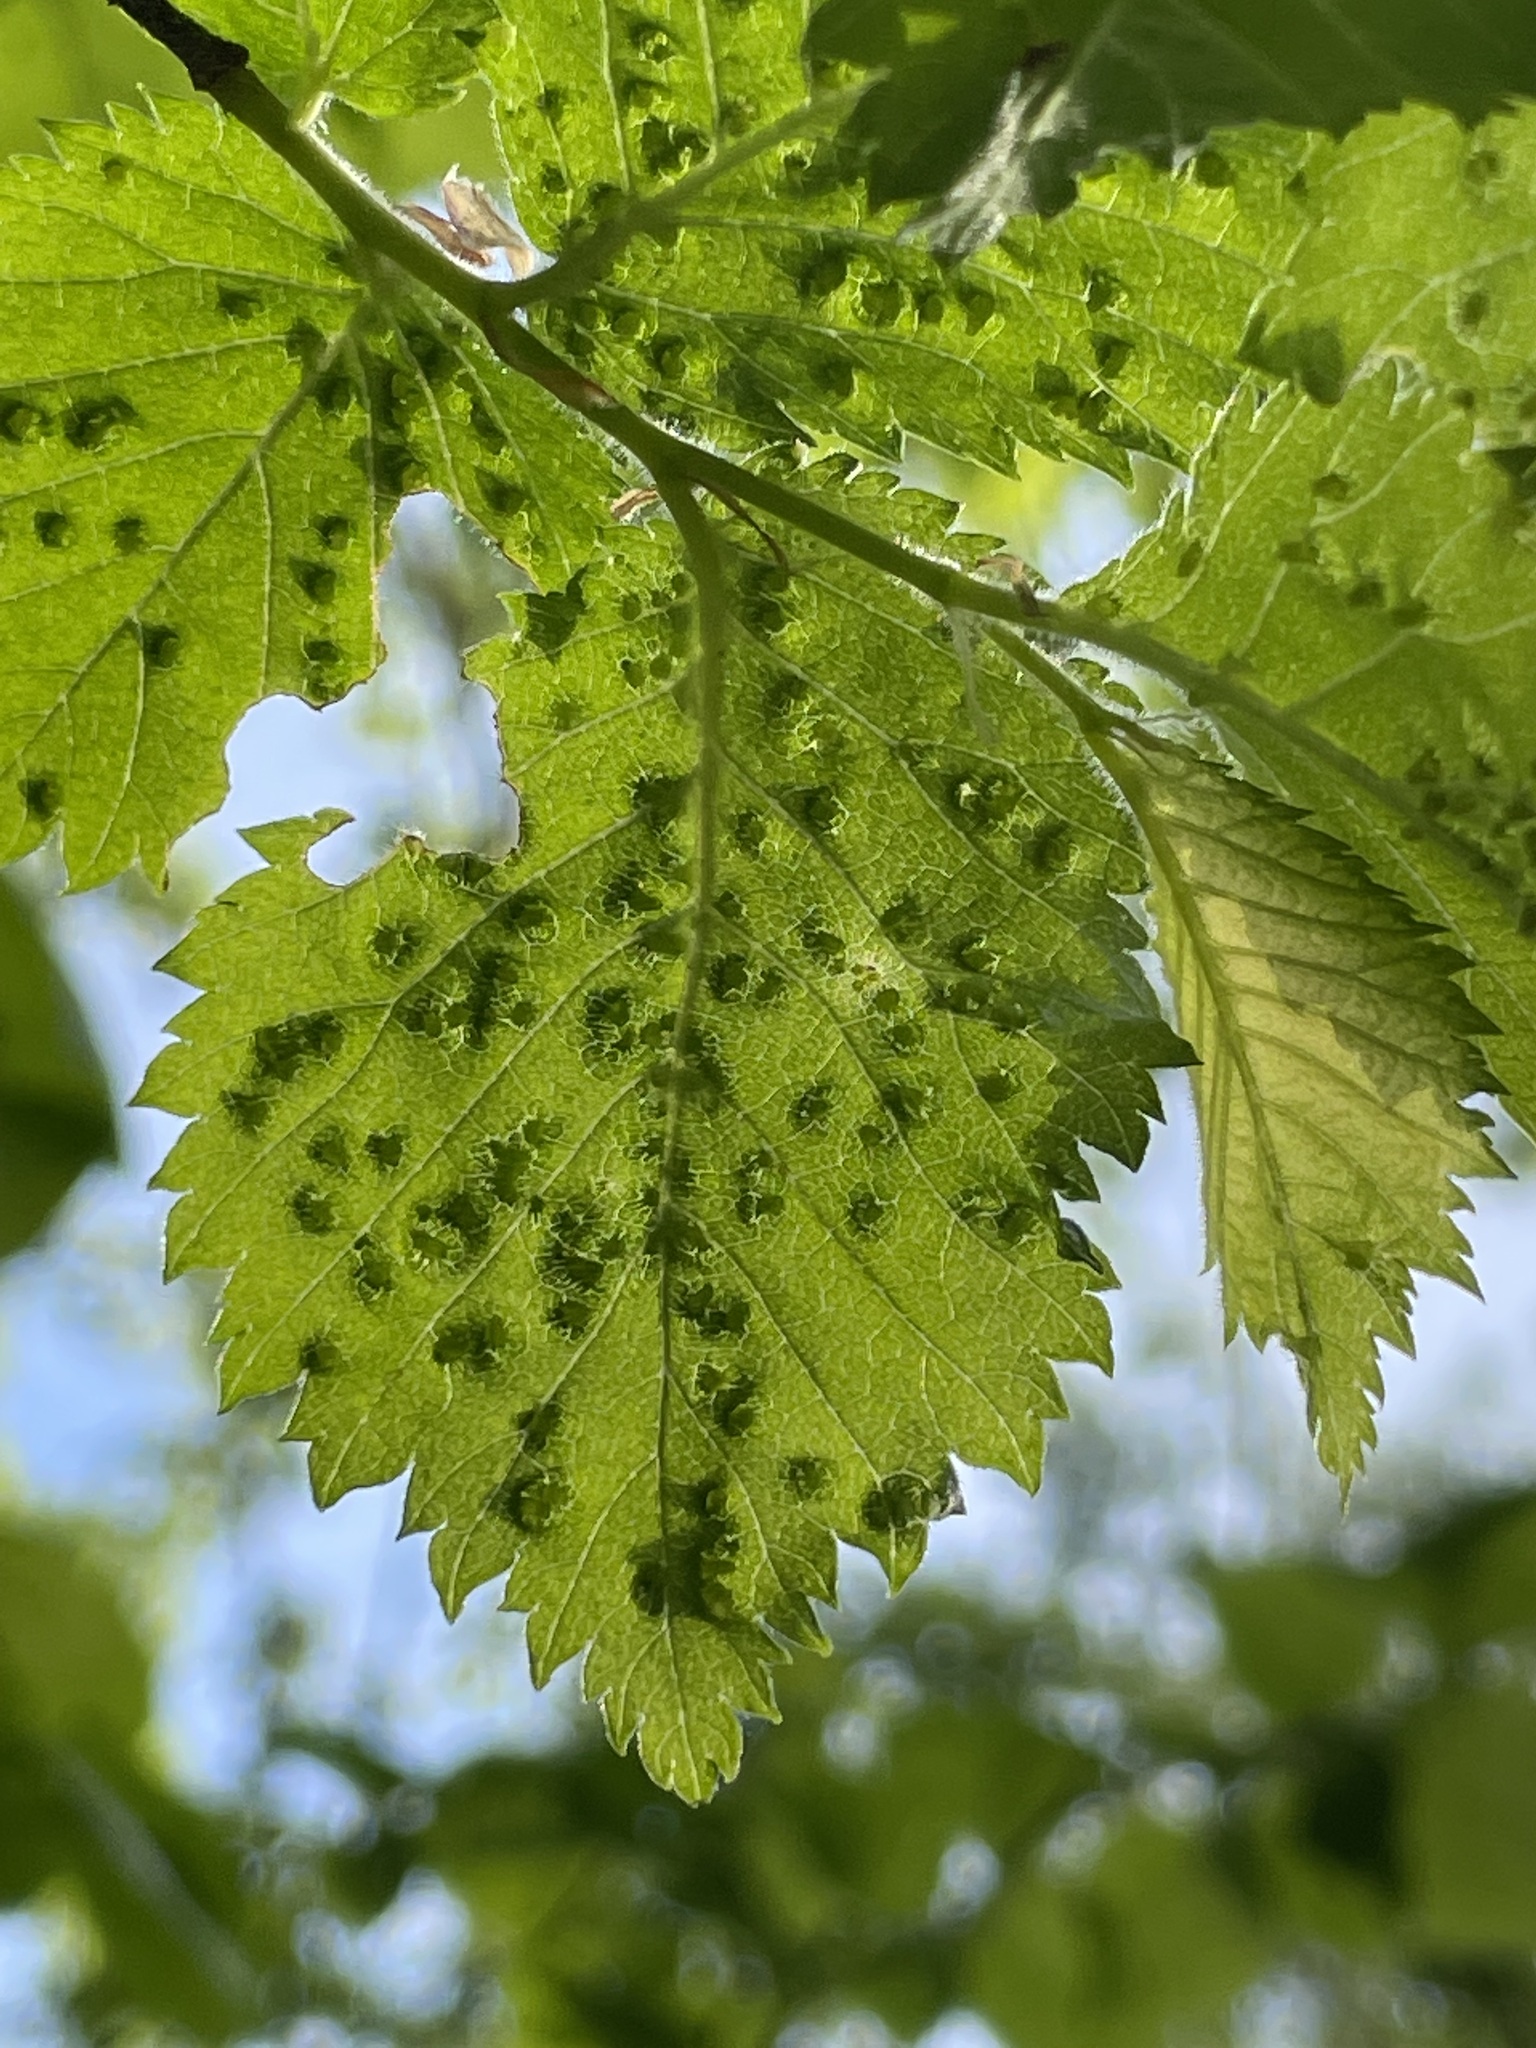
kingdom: Animalia
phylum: Arthropoda
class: Arachnida
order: Trombidiformes
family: Eriophyidae
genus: Aceria
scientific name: Aceria brevipunctata
